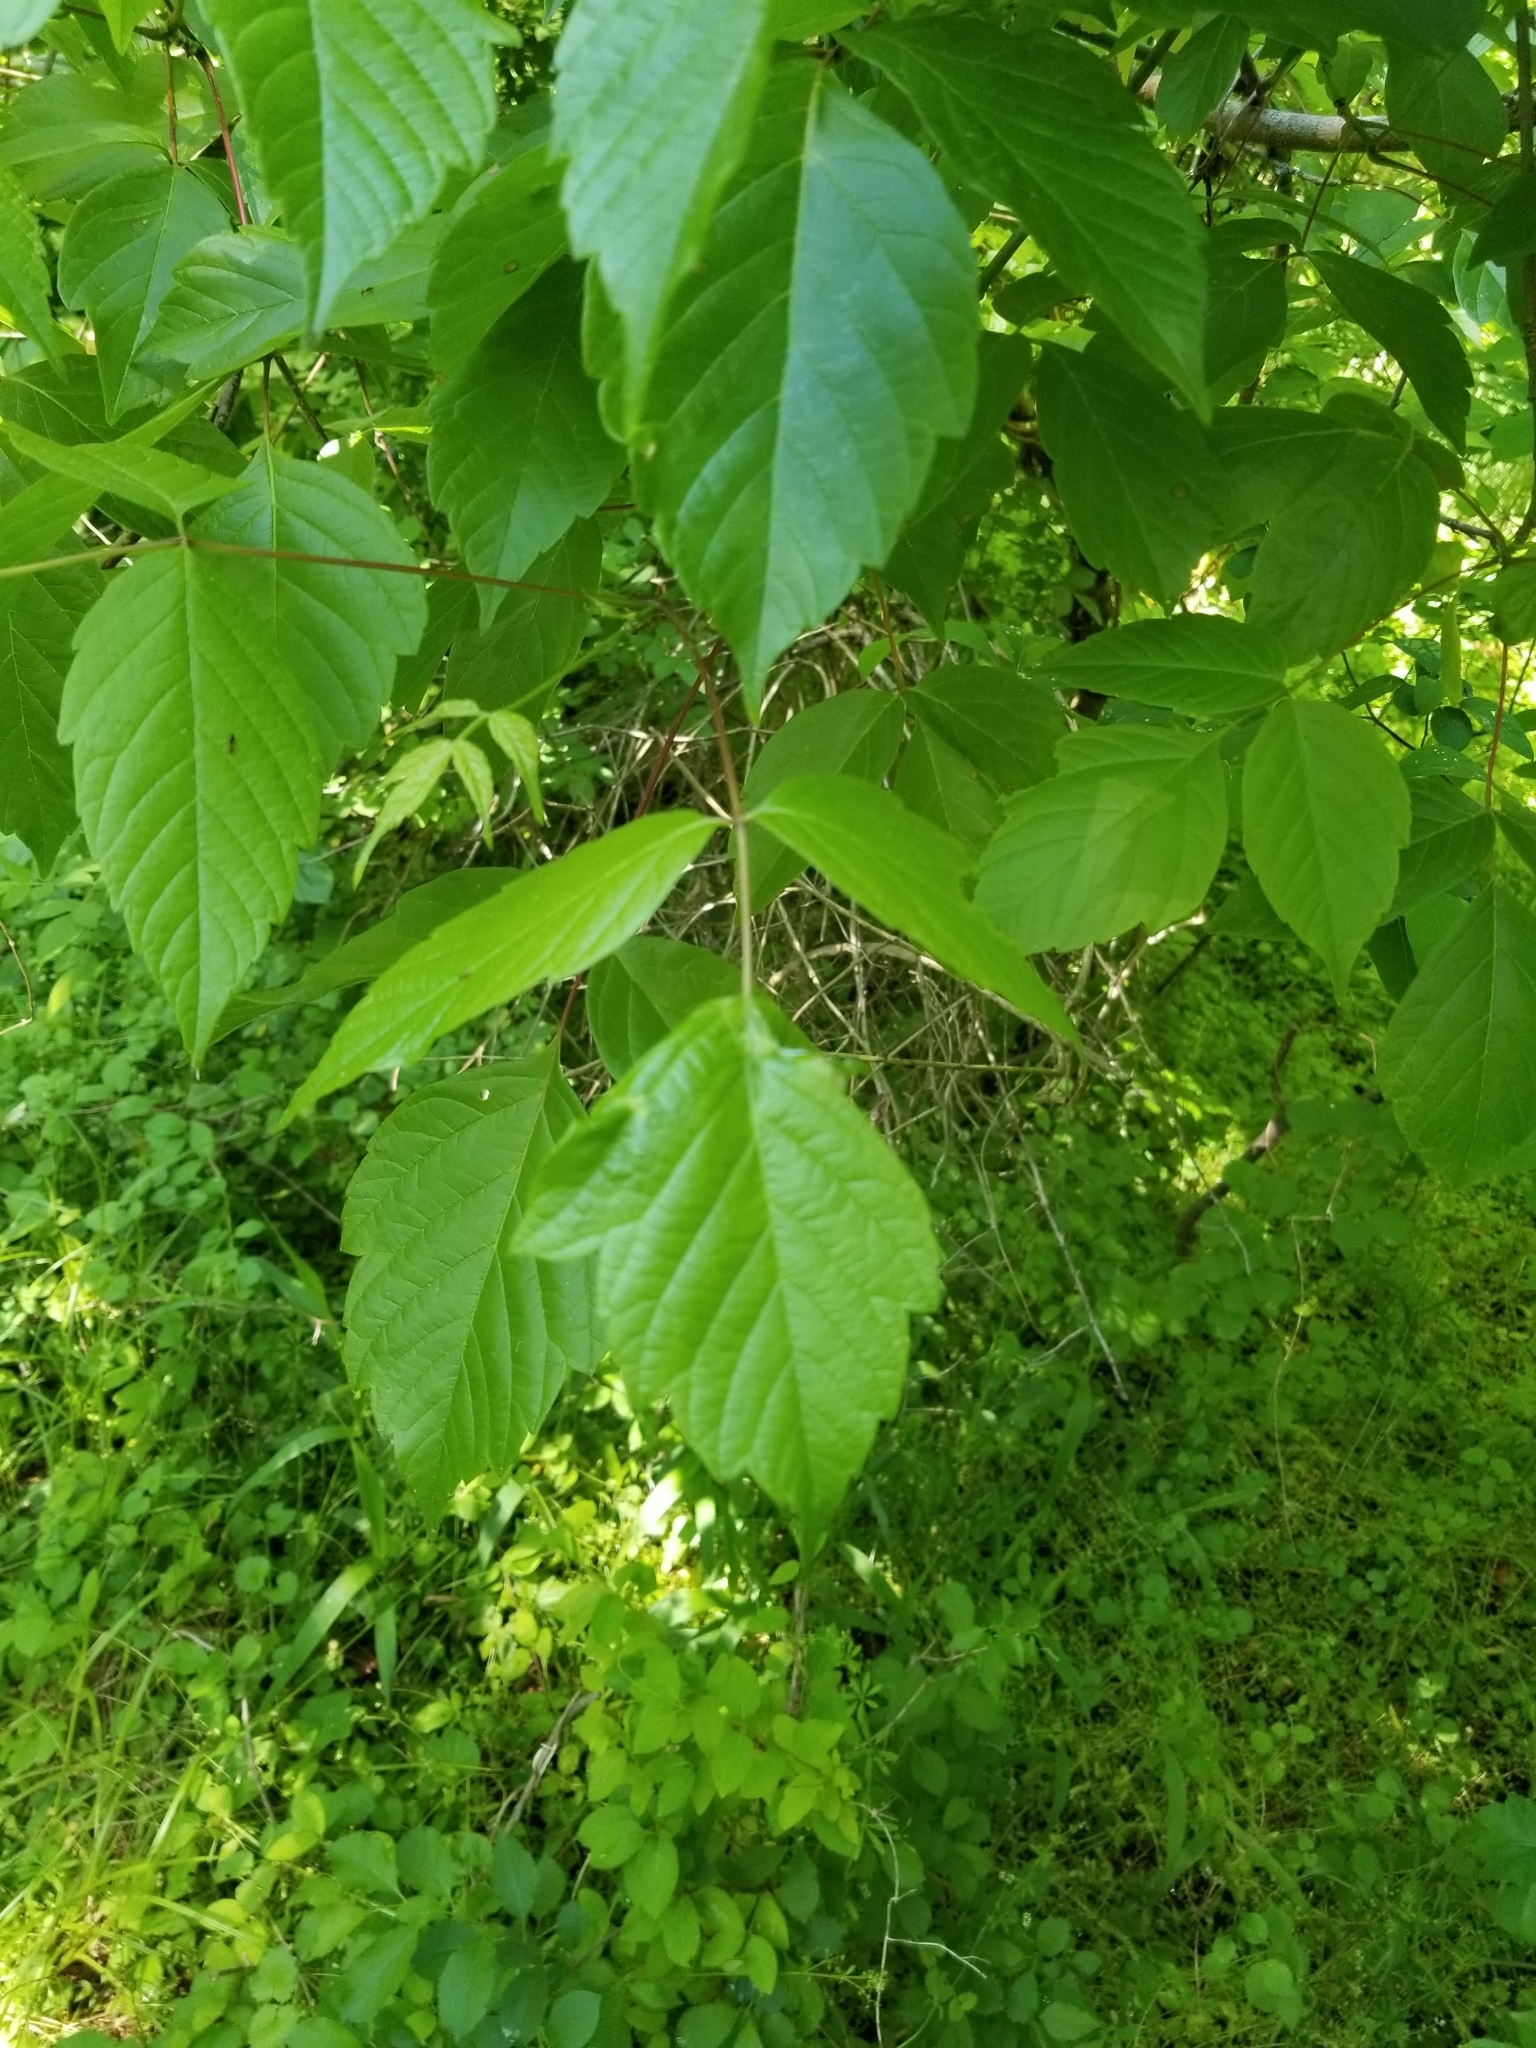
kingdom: Plantae
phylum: Tracheophyta
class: Magnoliopsida
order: Sapindales
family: Sapindaceae
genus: Acer
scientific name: Acer negundo
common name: Ashleaf maple
